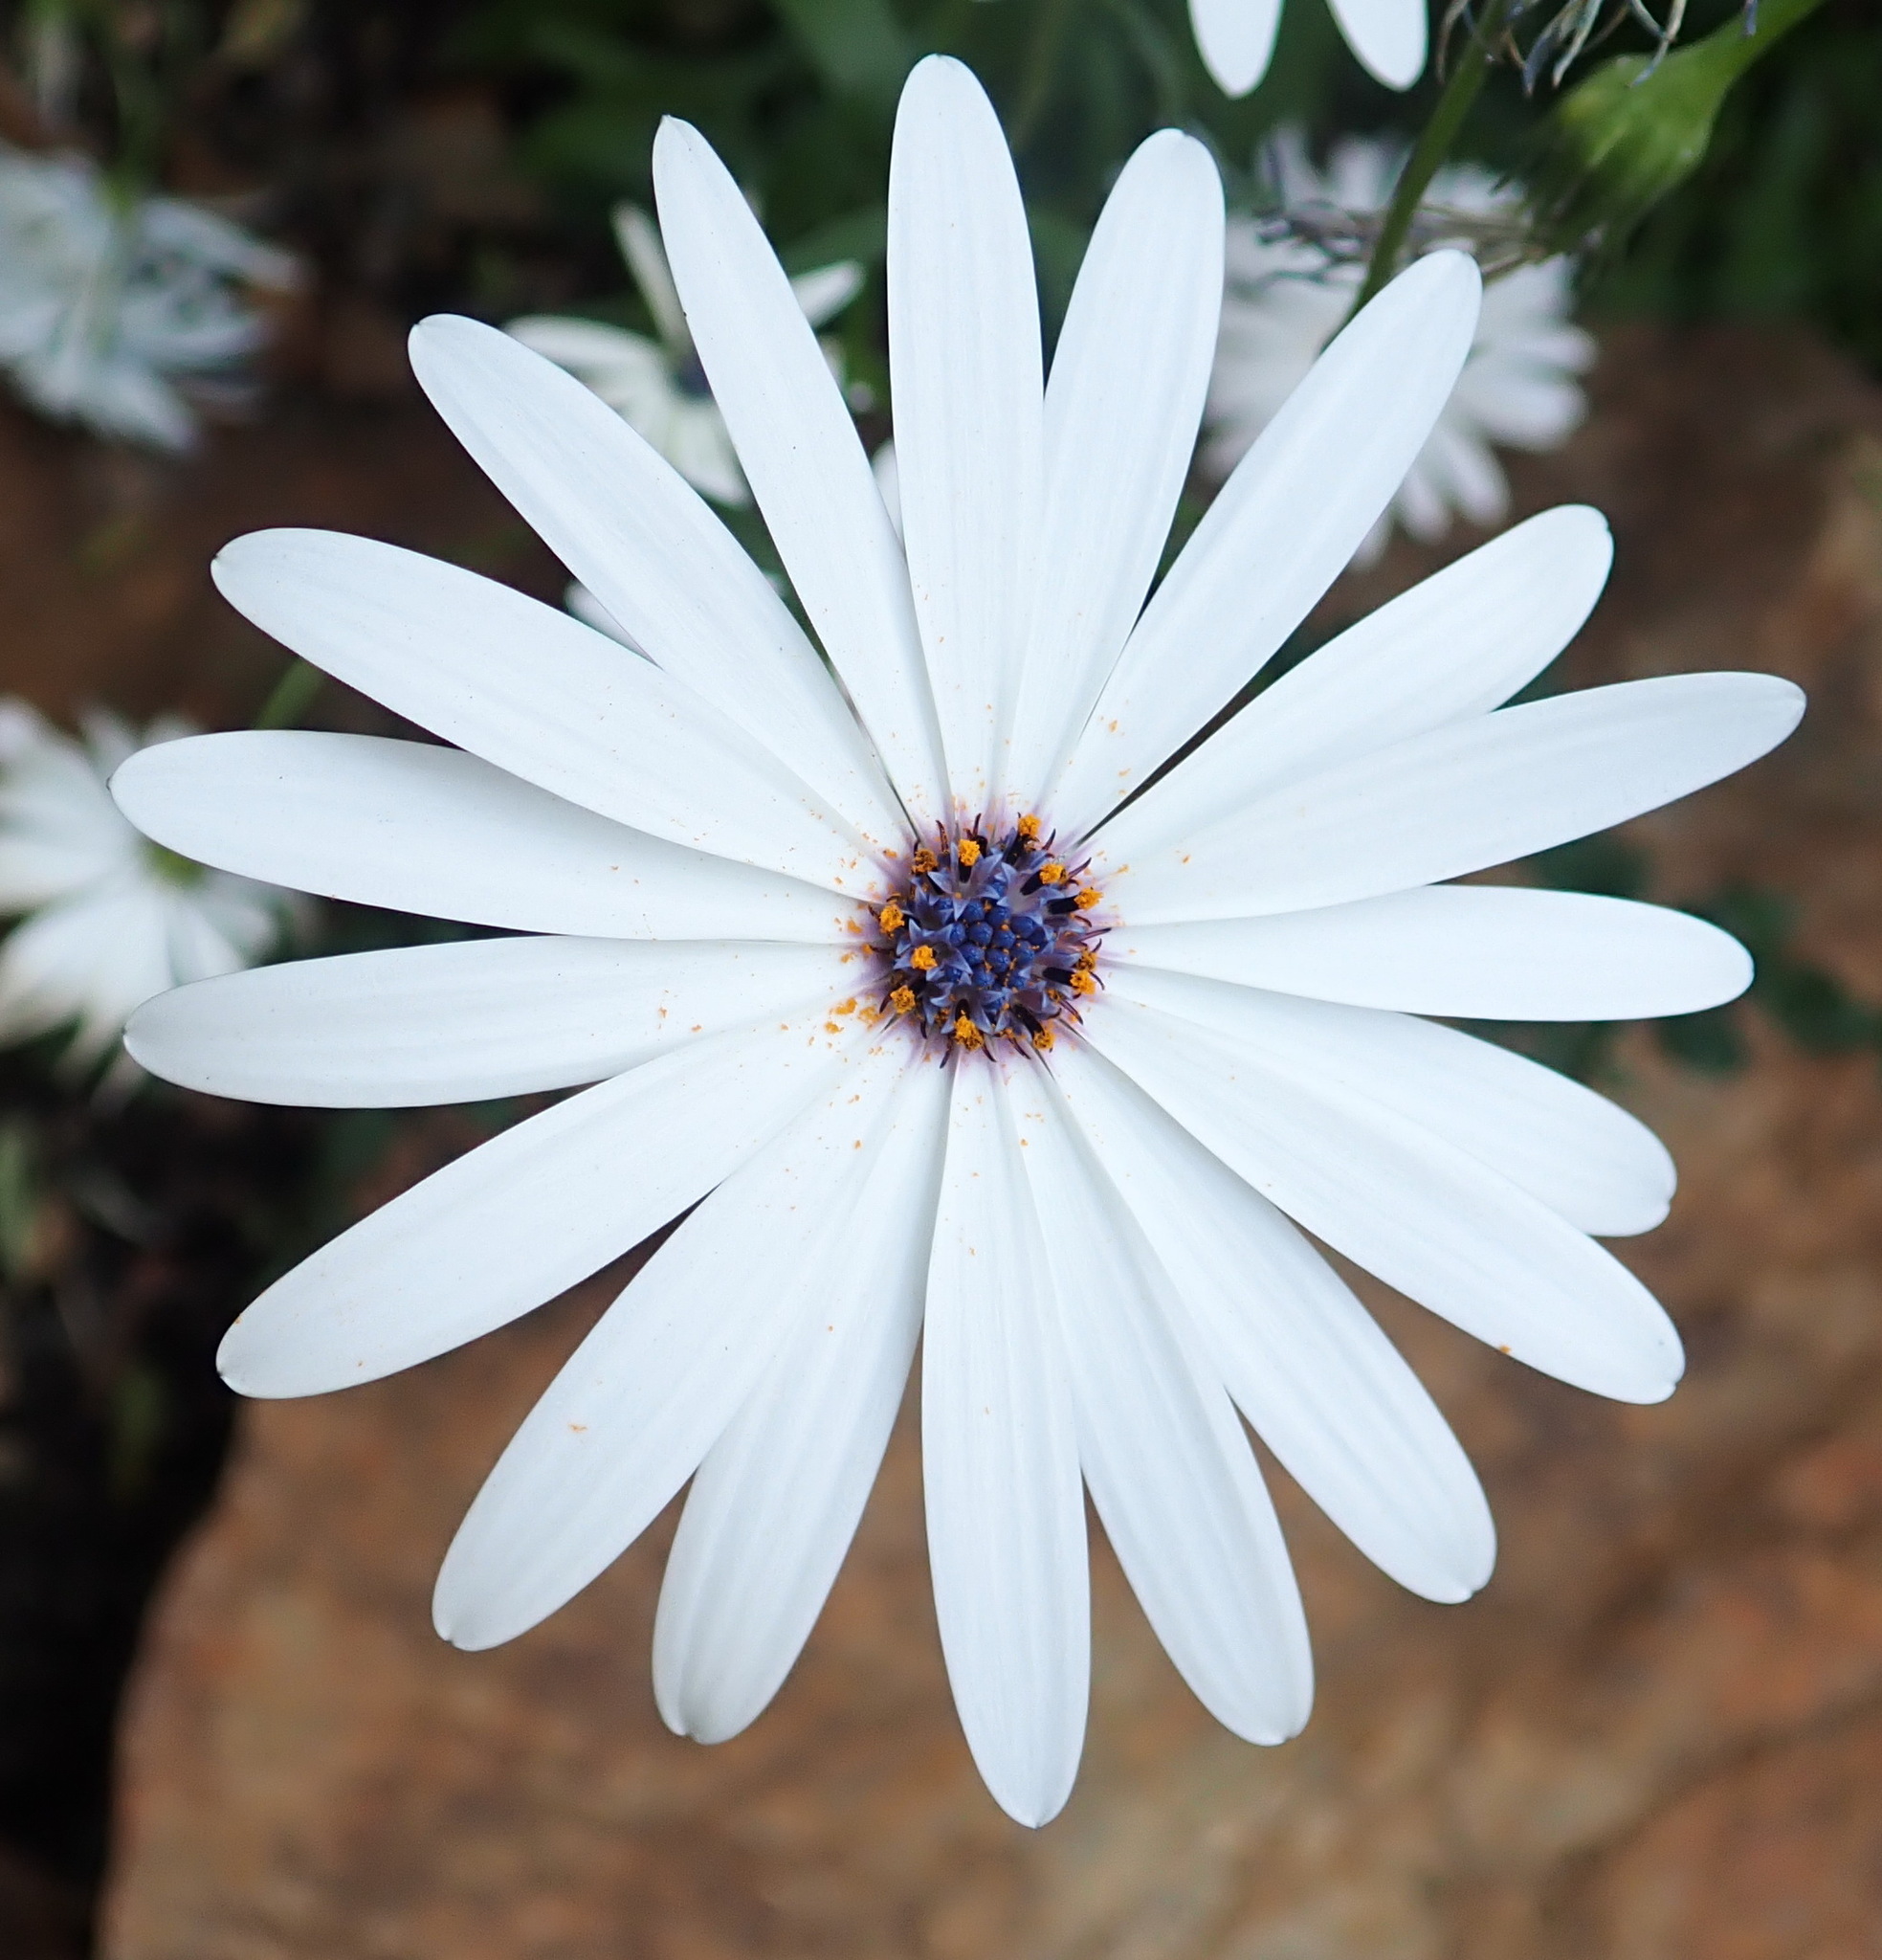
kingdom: Plantae
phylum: Tracheophyta
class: Magnoliopsida
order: Asterales
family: Asteraceae
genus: Dimorphotheca
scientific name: Dimorphotheca ecklonis
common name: Vanstaden's river daisy
